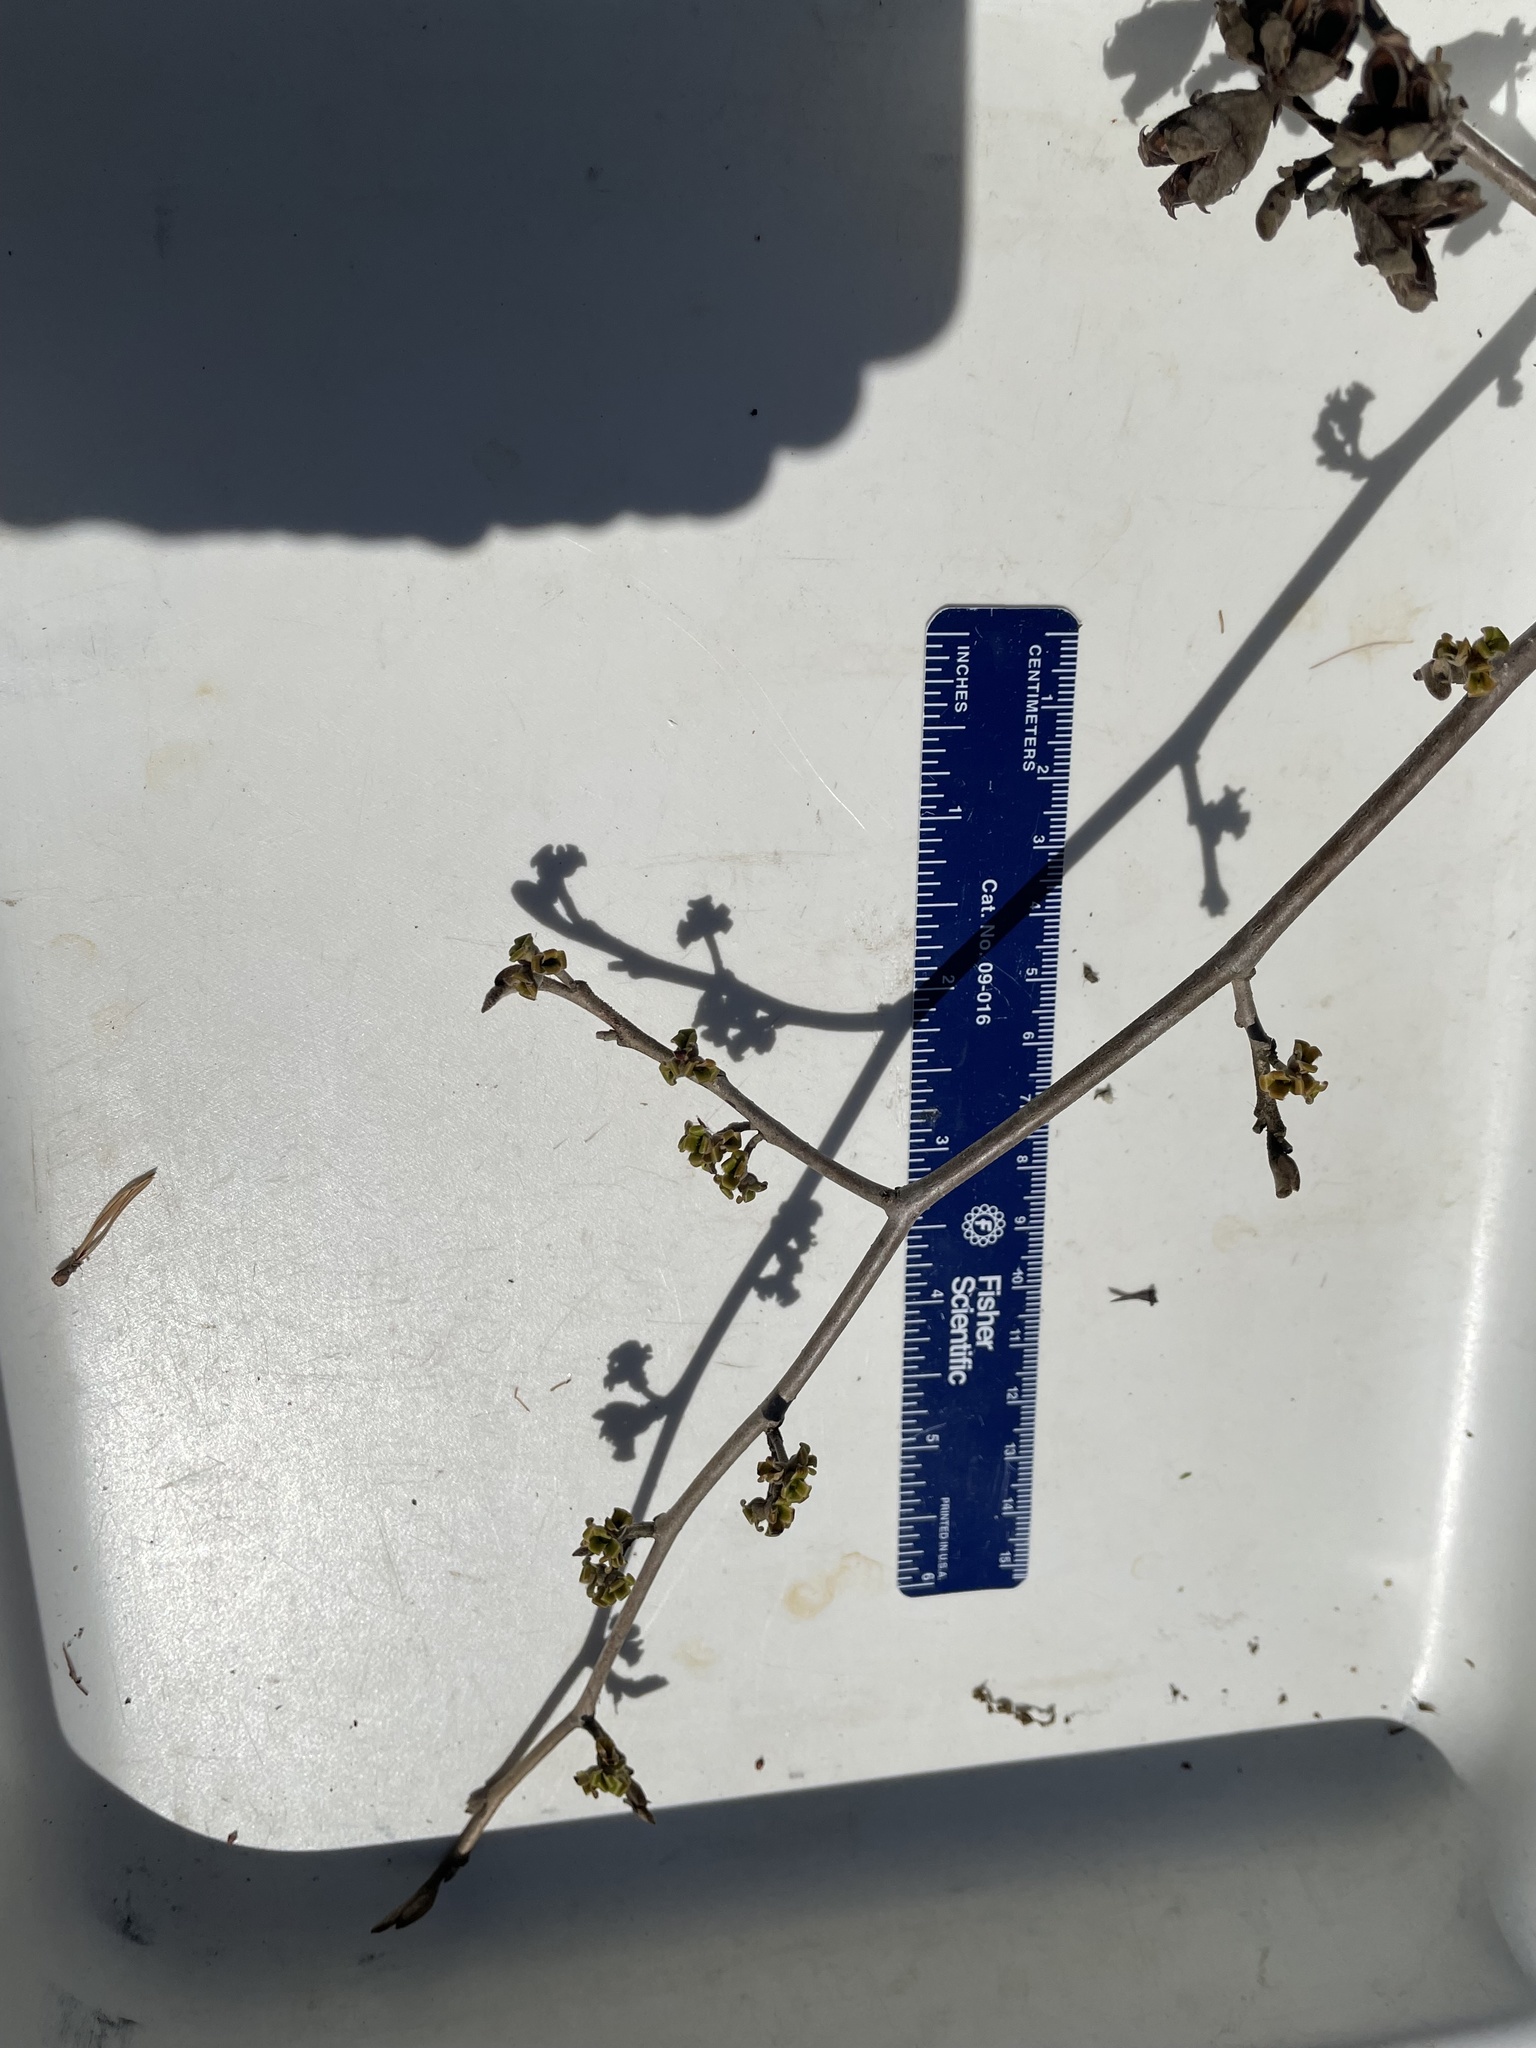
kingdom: Plantae
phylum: Tracheophyta
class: Magnoliopsida
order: Saxifragales
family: Hamamelidaceae
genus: Hamamelis
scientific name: Hamamelis virginiana
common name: Witch-hazel
